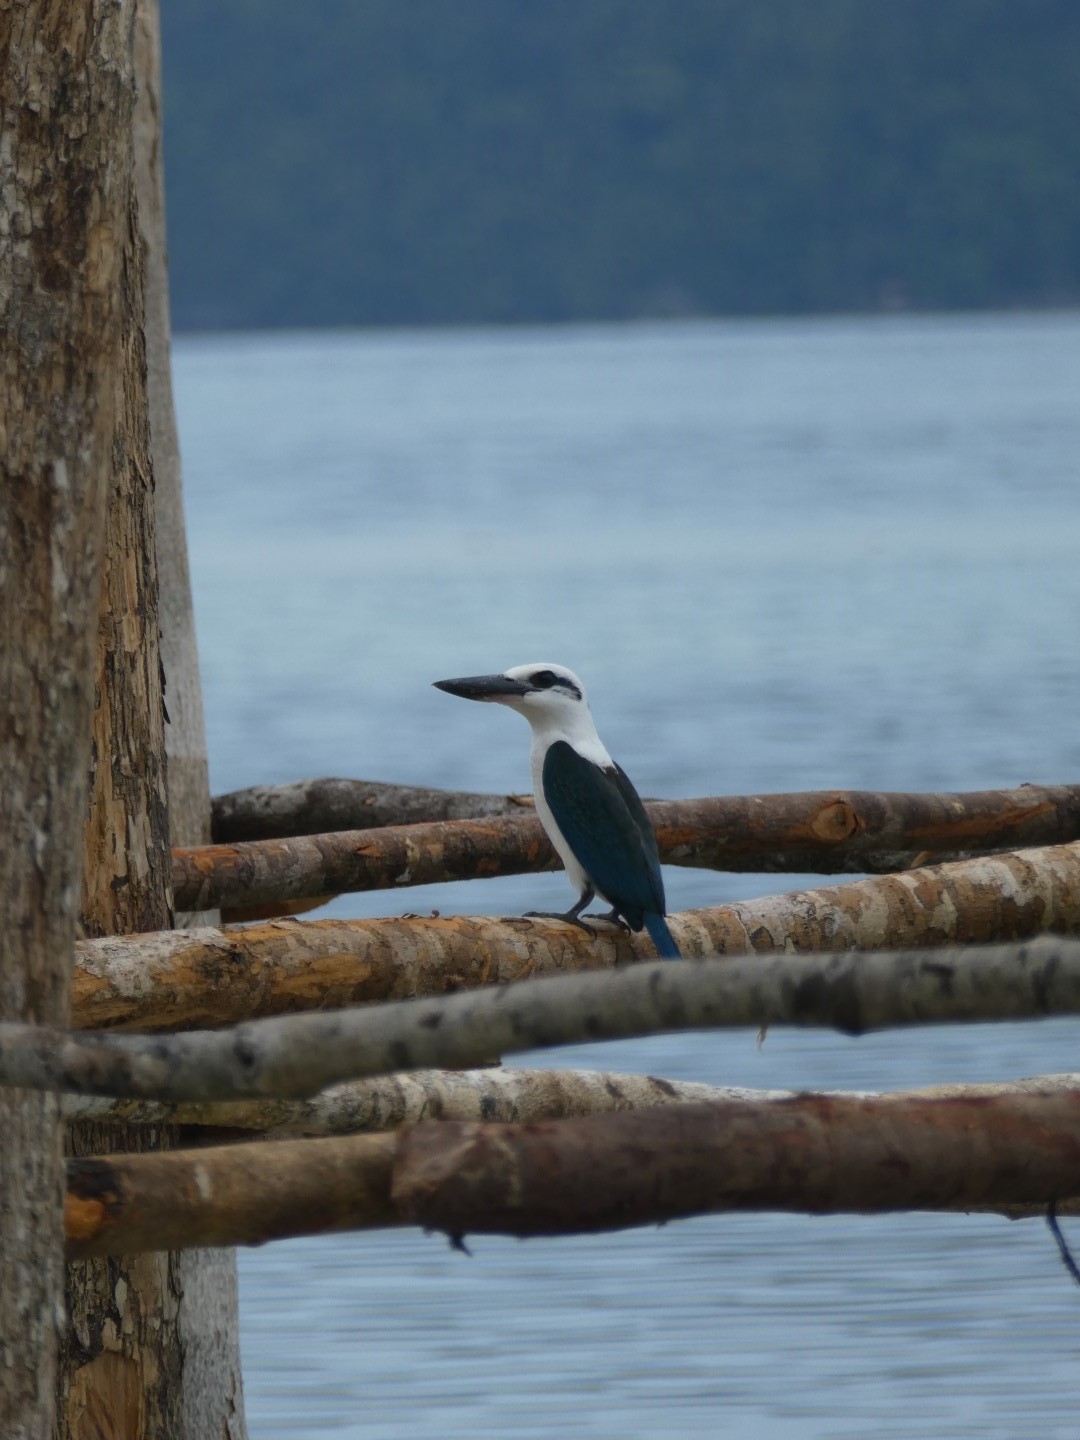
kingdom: Animalia
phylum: Chordata
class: Aves
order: Coraciiformes
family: Alcedinidae
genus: Todiramphus
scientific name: Todiramphus saurophagus
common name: Beach kingfisher
